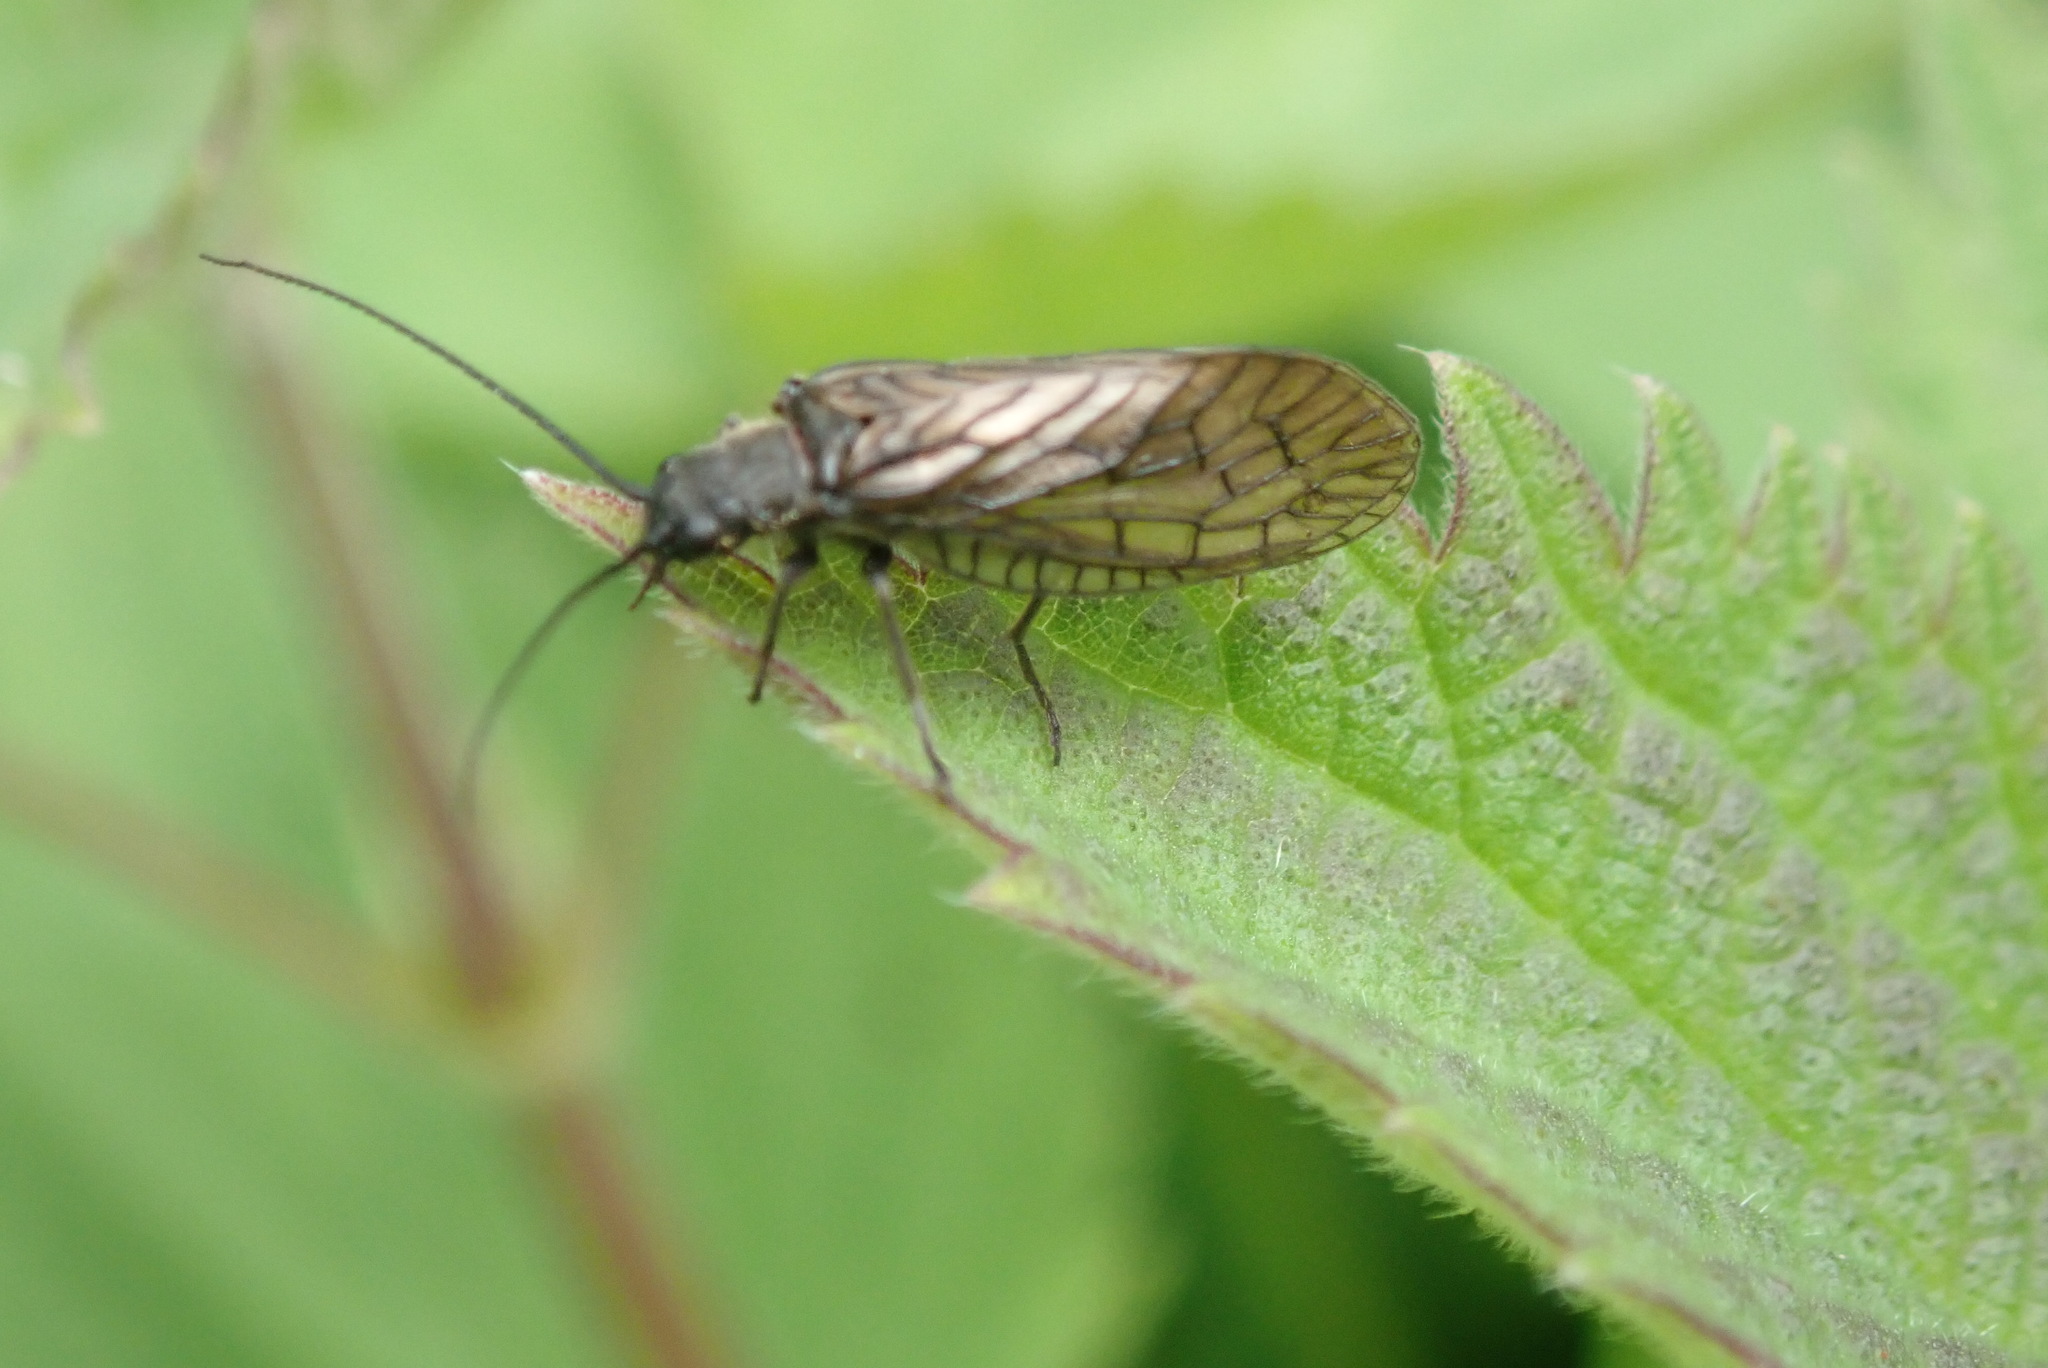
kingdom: Animalia
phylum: Arthropoda
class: Insecta
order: Megaloptera
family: Sialidae
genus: Sialis
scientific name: Sialis
